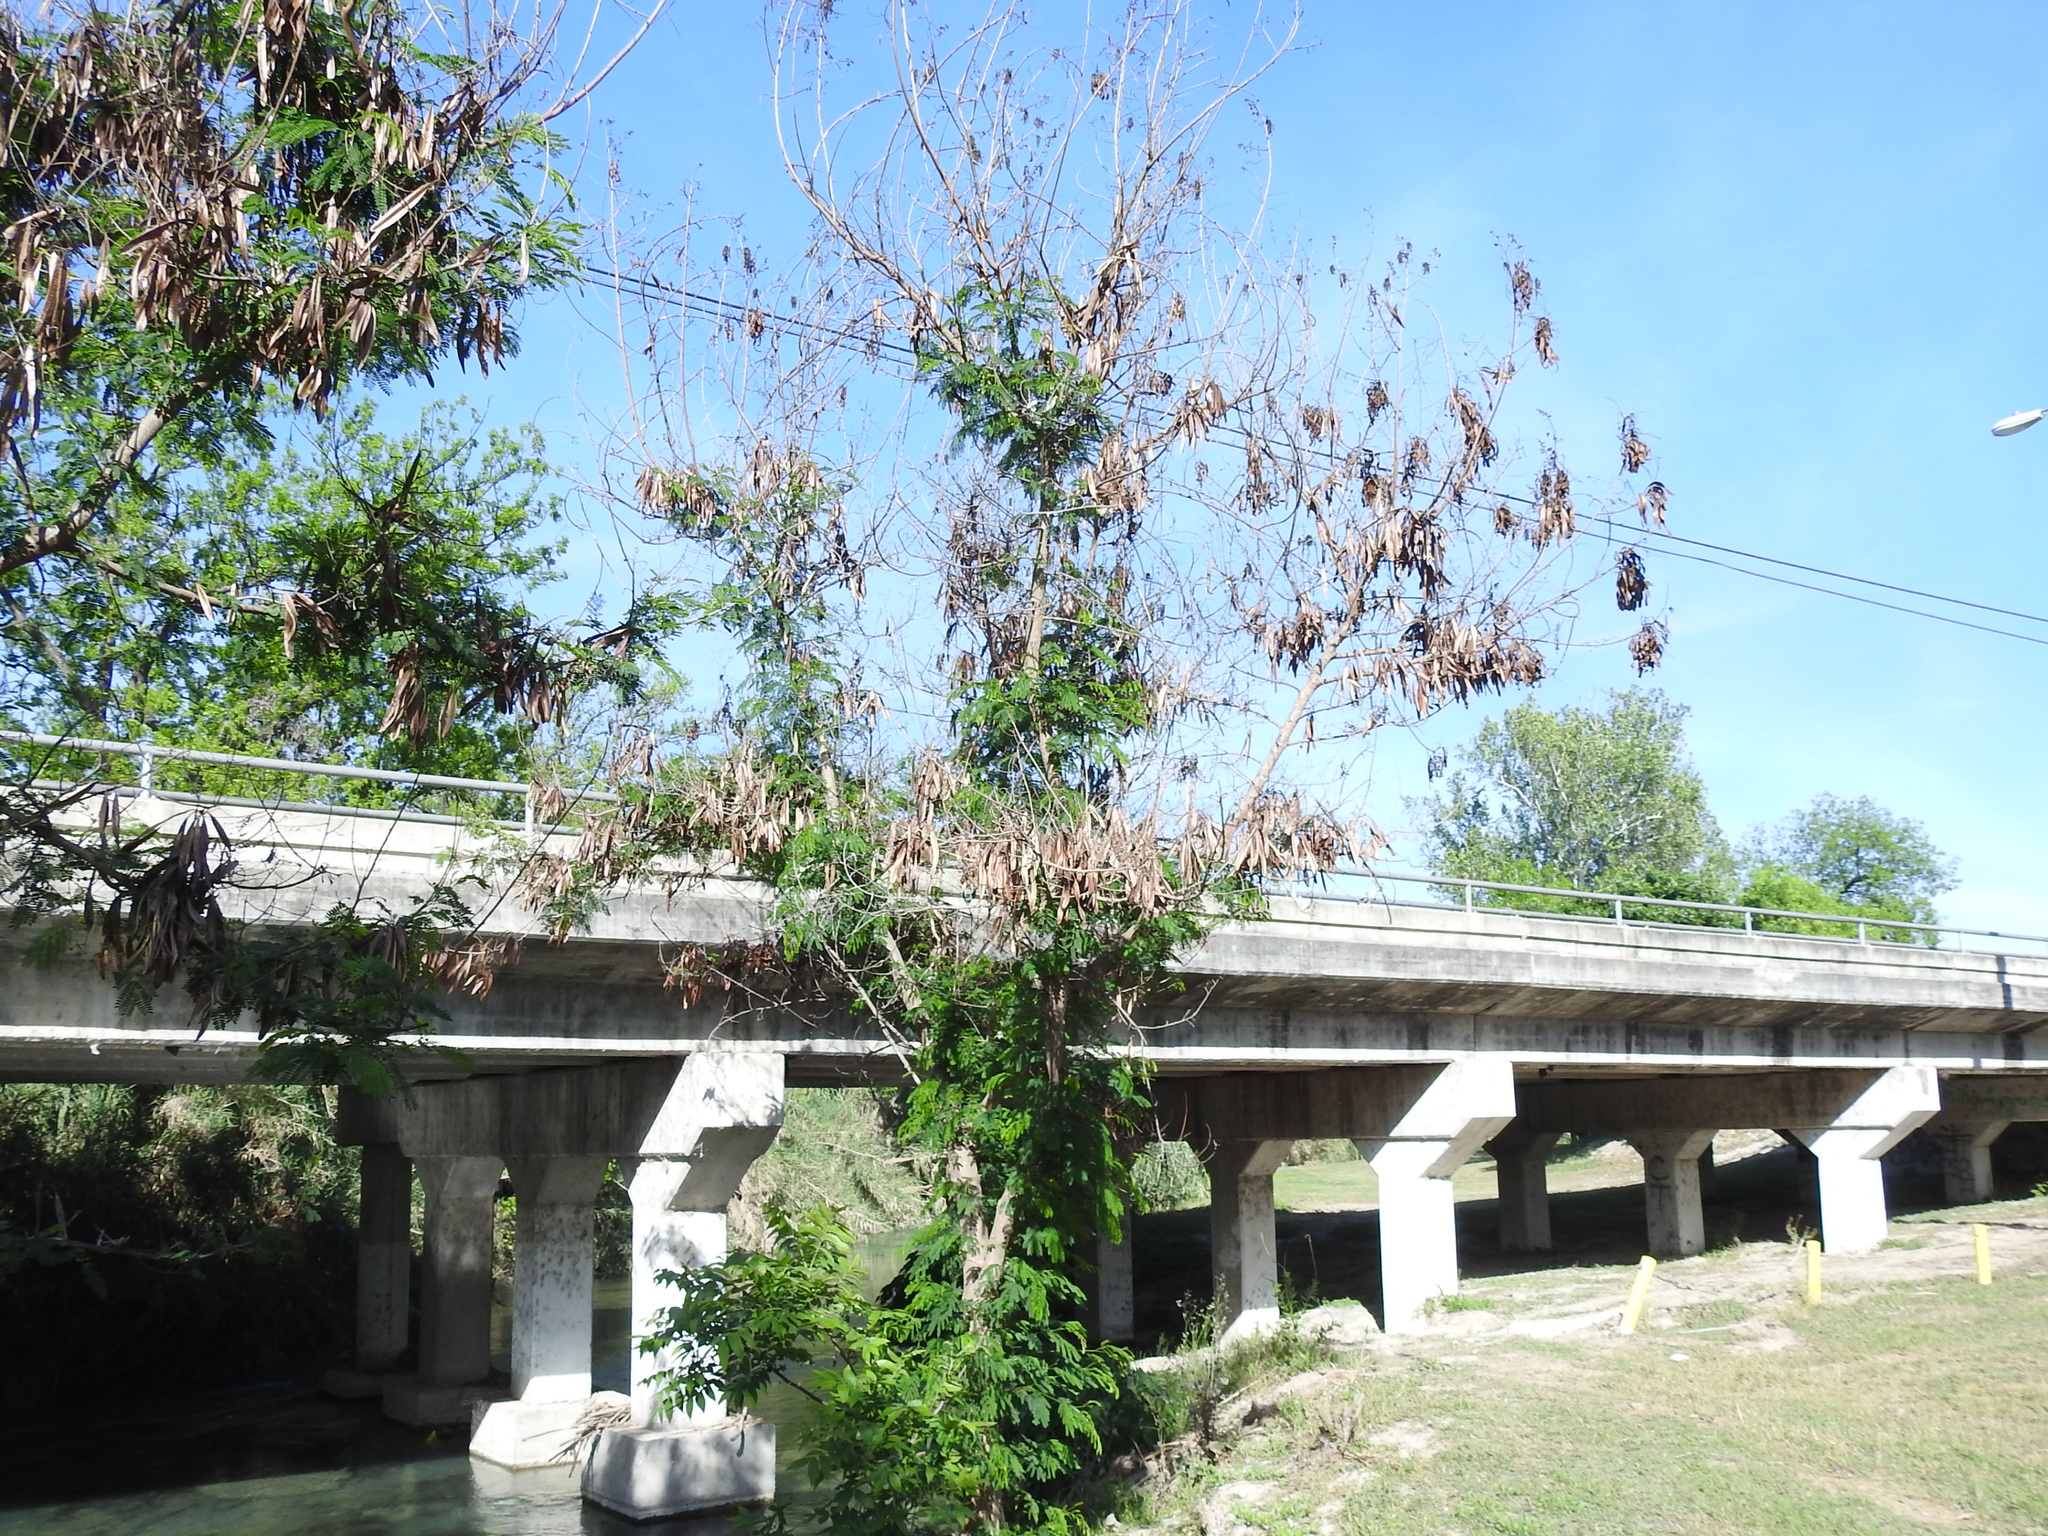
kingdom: Plantae
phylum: Tracheophyta
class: Magnoliopsida
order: Fabales
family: Fabaceae
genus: Leucaena
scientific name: Leucaena leucocephala
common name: White leadtree
